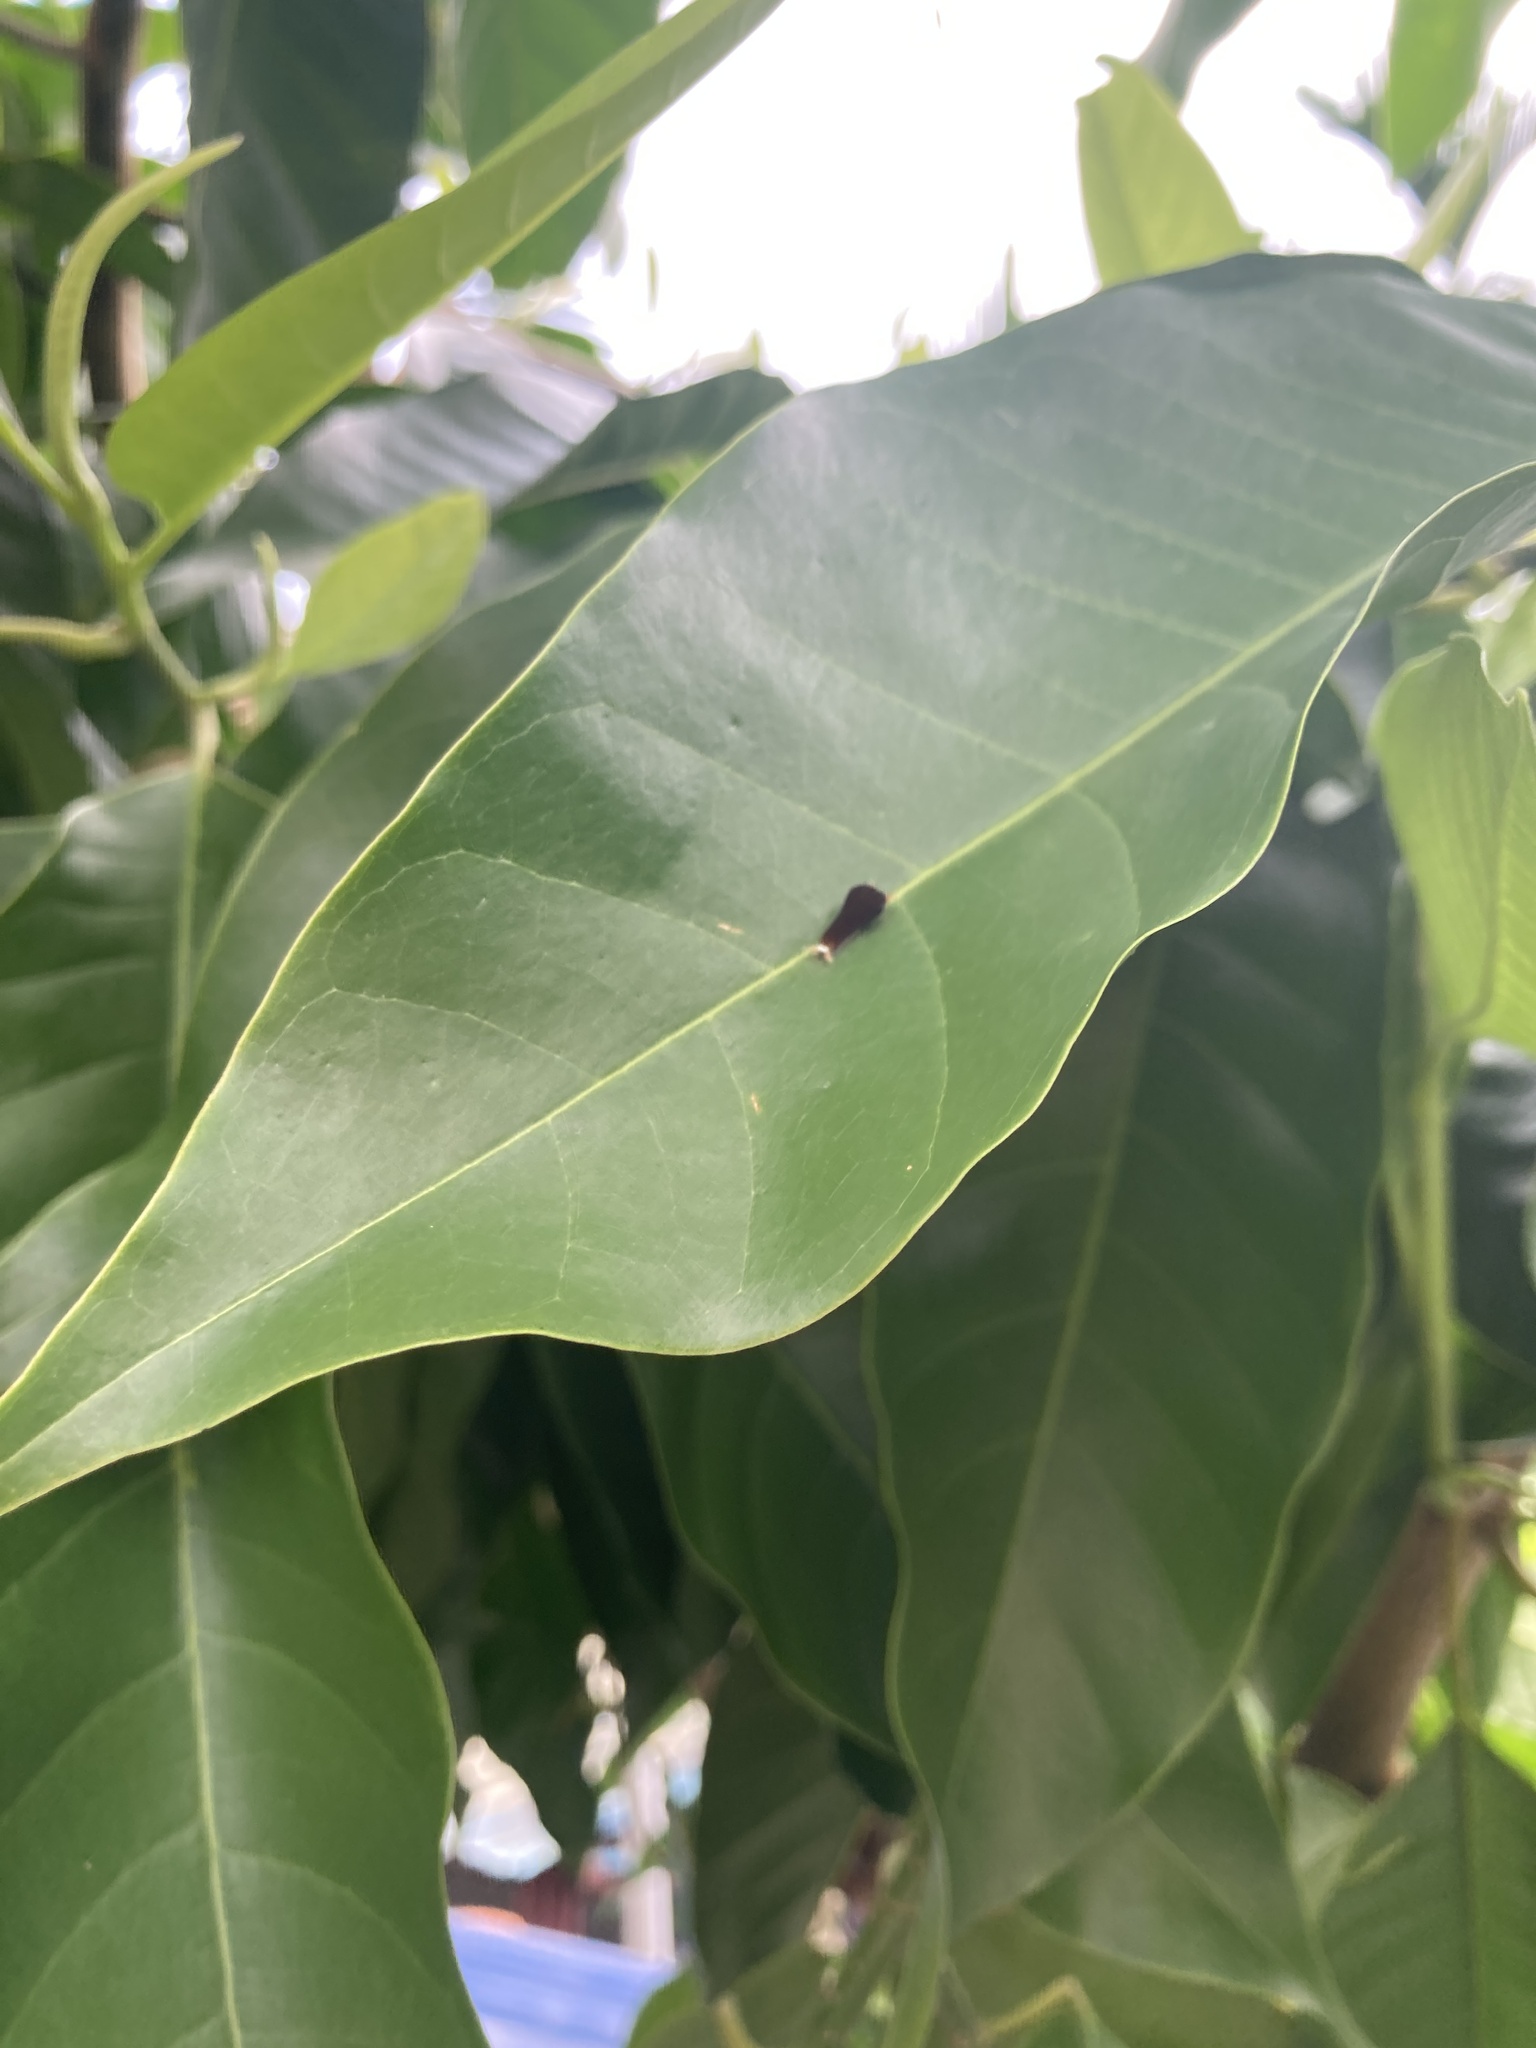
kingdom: Animalia
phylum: Arthropoda
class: Insecta
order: Lepidoptera
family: Papilionidae
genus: Graphium
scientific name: Graphium agamemnon
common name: Tailed jay
